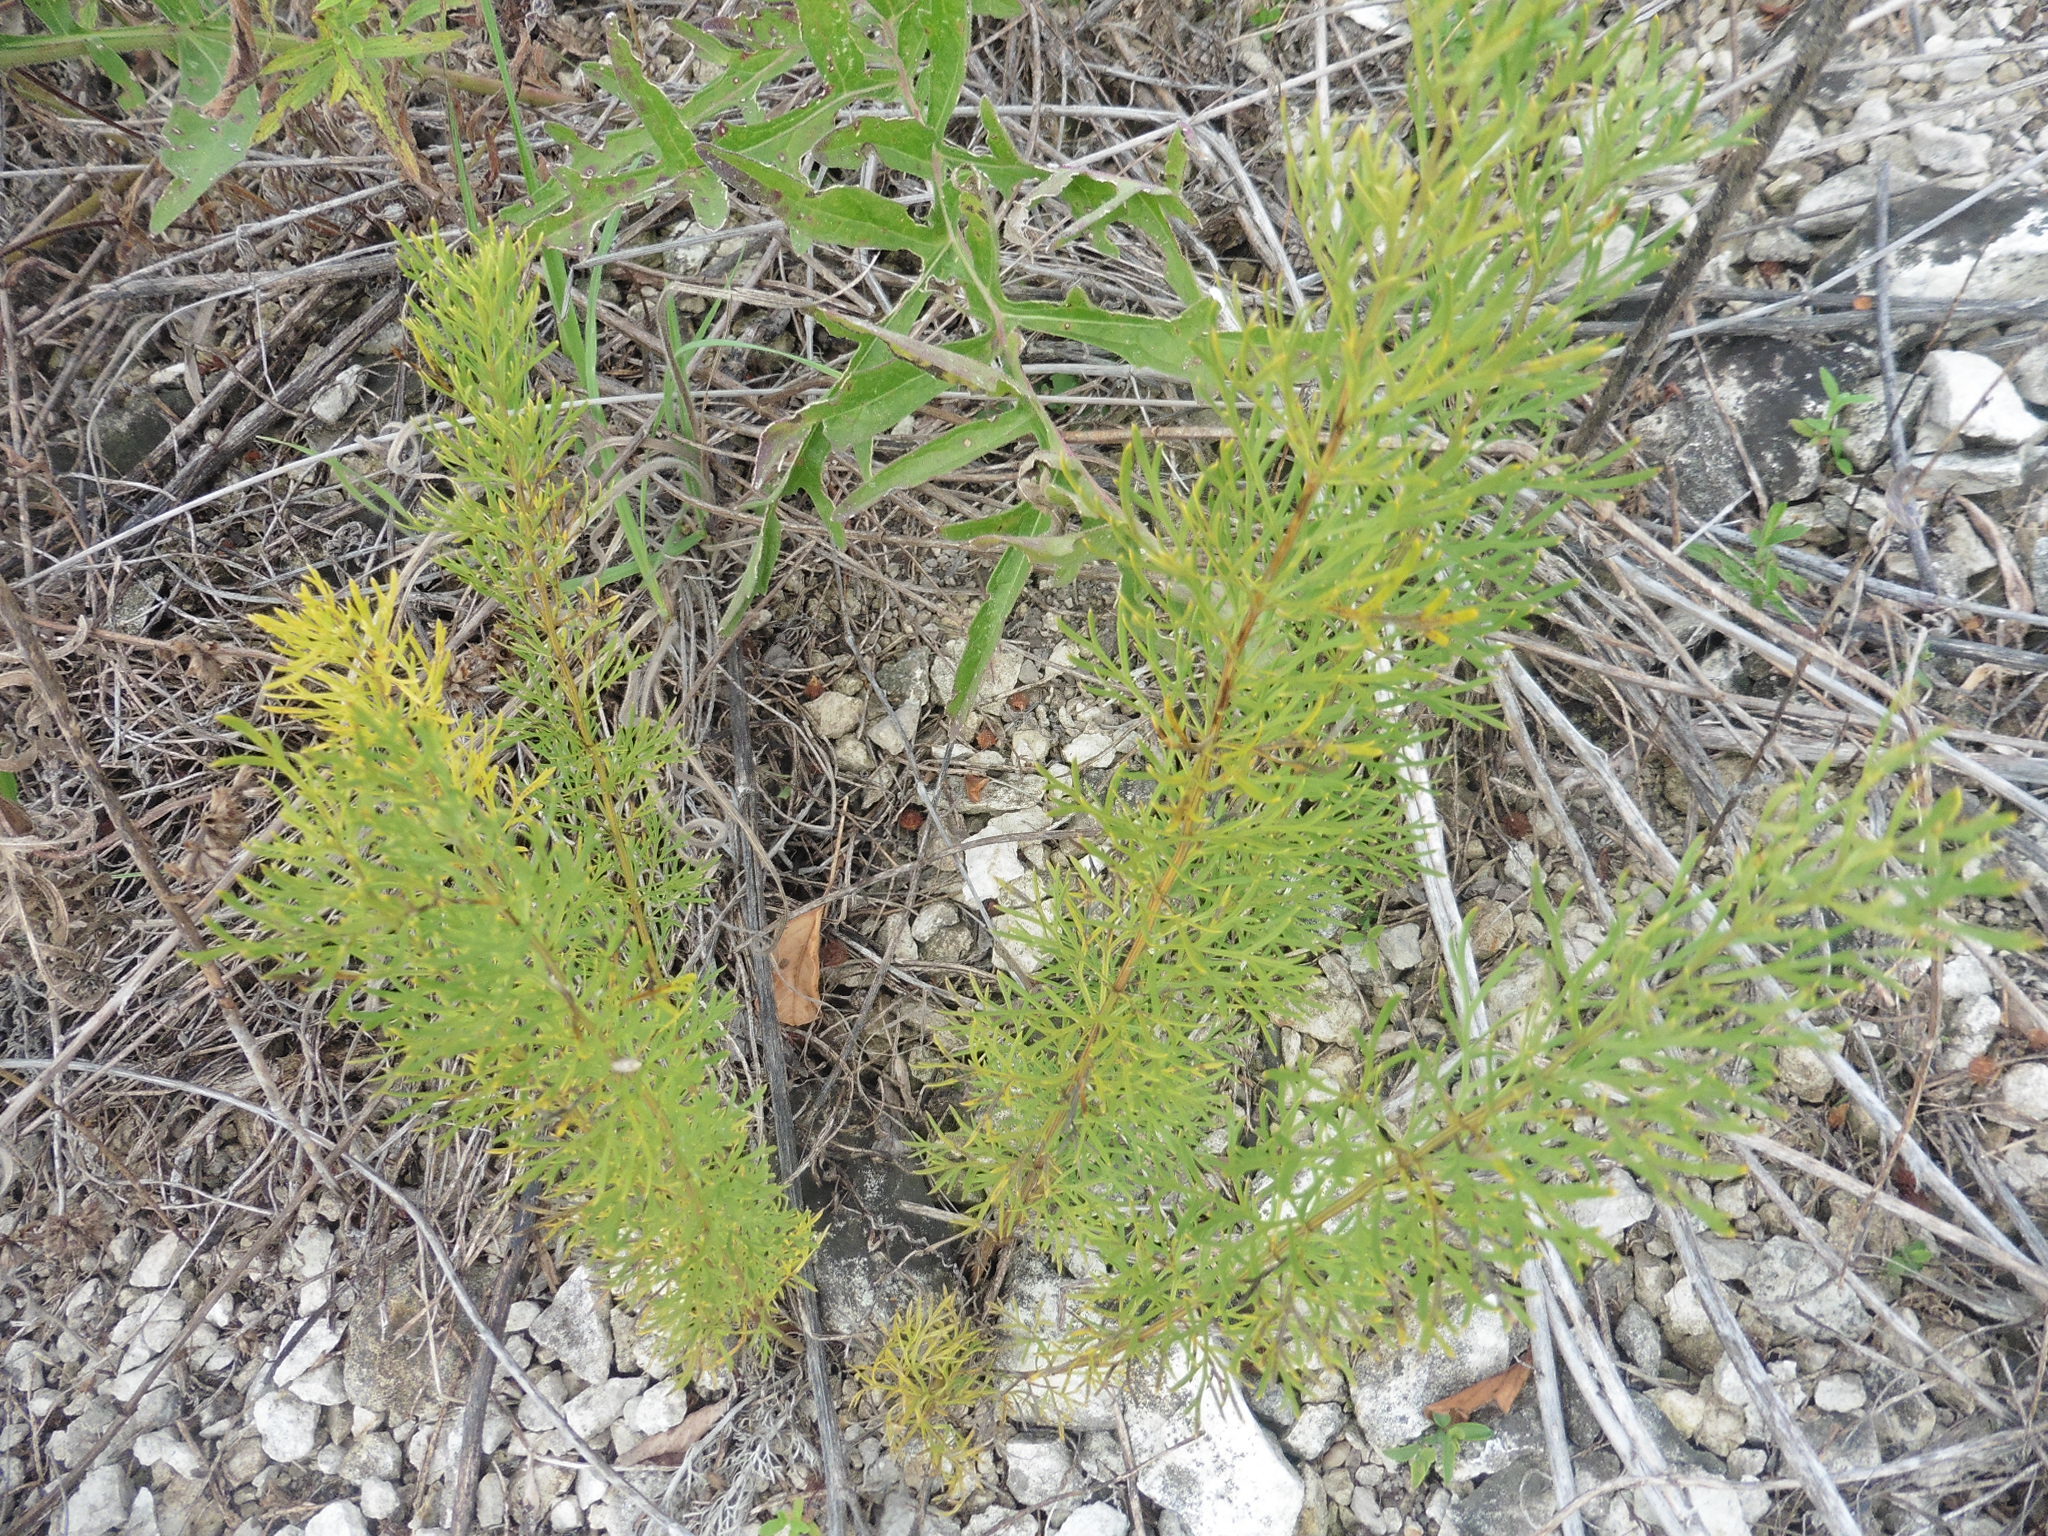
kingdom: Plantae
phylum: Tracheophyta
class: Magnoliopsida
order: Ranunculales
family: Ranunculaceae
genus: Adonis
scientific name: Adonis vernalis
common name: Yellow pheasants-eye
